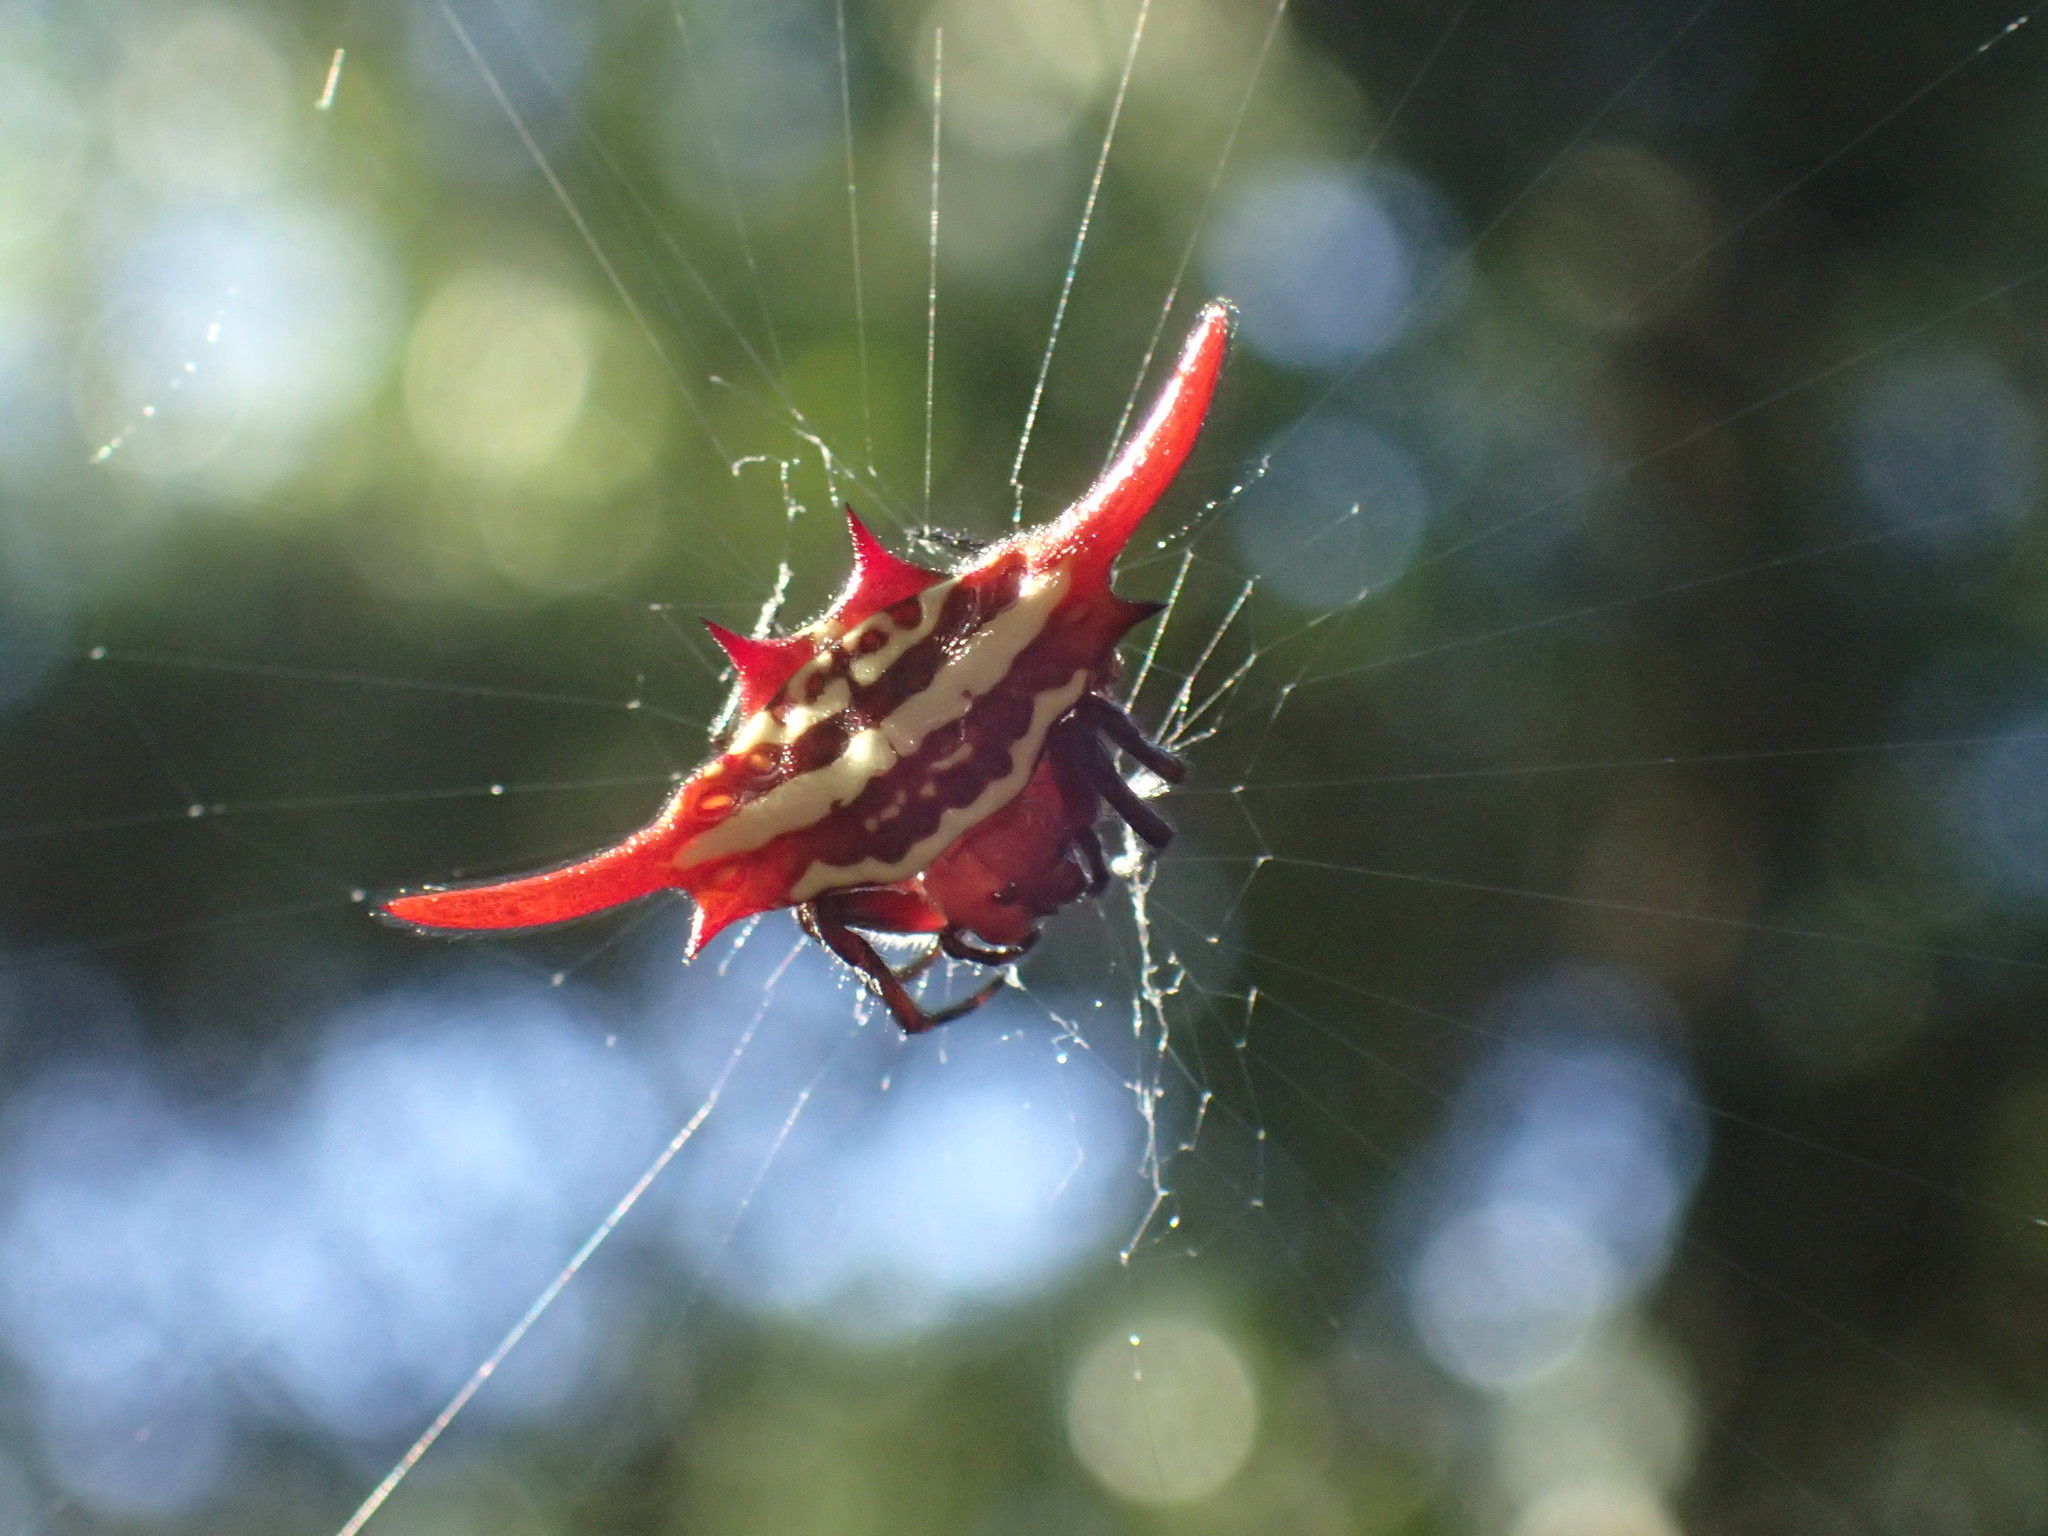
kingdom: Animalia
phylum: Arthropoda
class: Arachnida
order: Araneae
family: Araneidae
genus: Gasteracantha
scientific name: Gasteracantha versicolor
